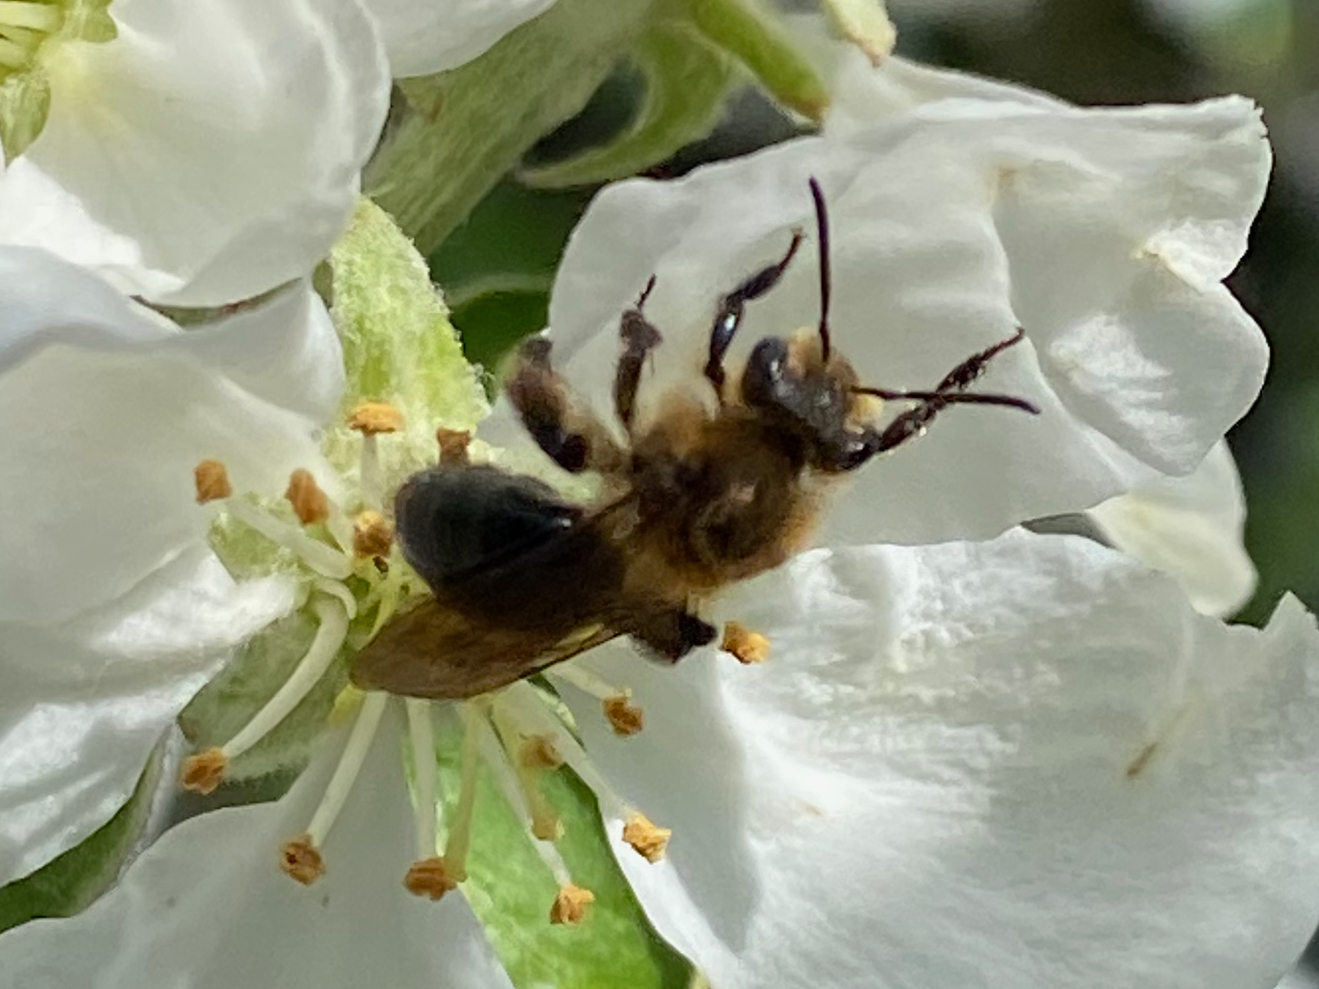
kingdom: Animalia
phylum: Arthropoda
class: Insecta
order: Hymenoptera
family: Andrenidae
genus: Andrena
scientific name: Andrena vicina
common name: Neighborly mining bee
